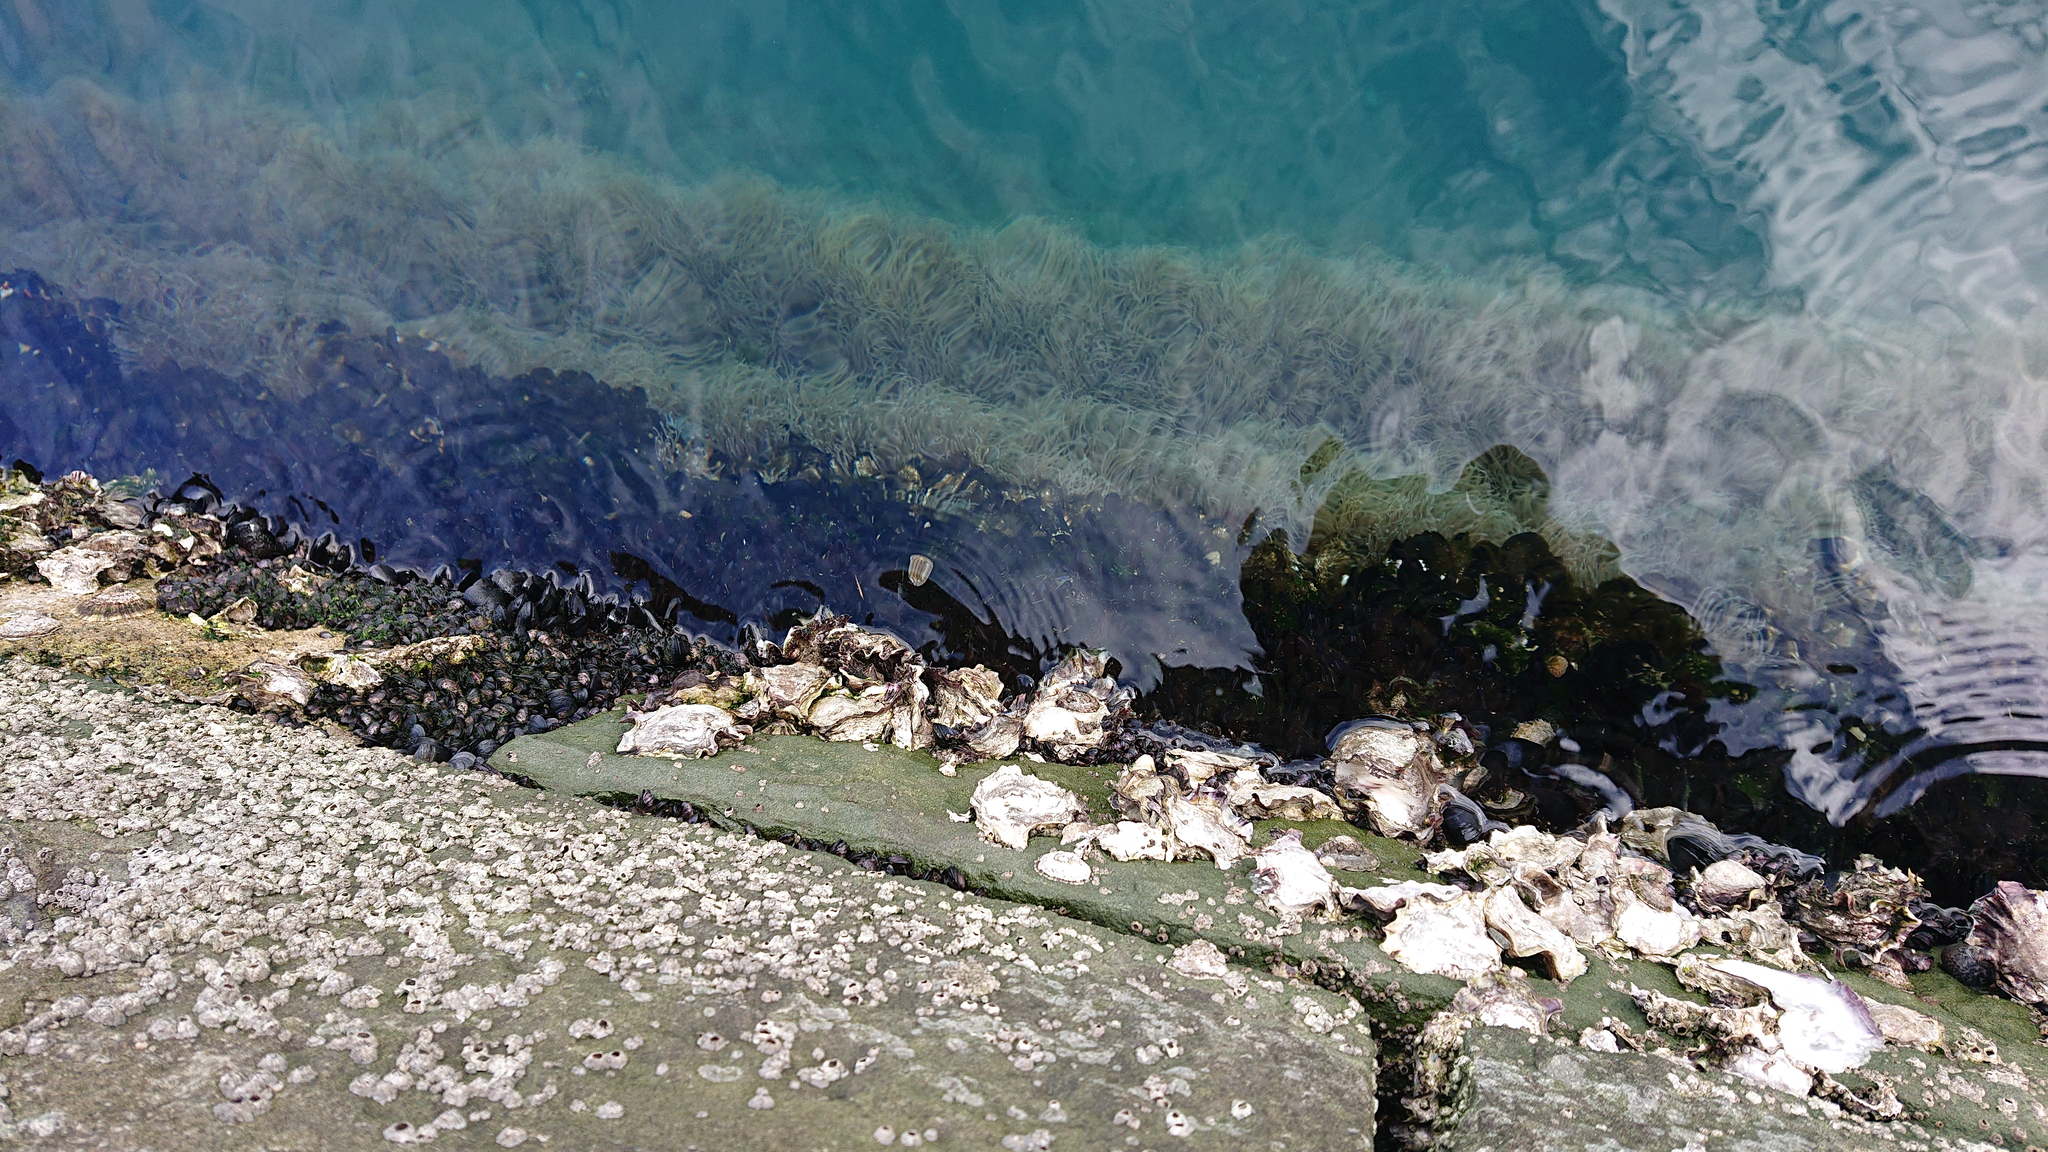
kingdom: Animalia
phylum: Cnidaria
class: Anthozoa
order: Actiniaria
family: Actiniidae
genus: Anemonia
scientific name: Anemonia viridis
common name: Snakelocks anemone
